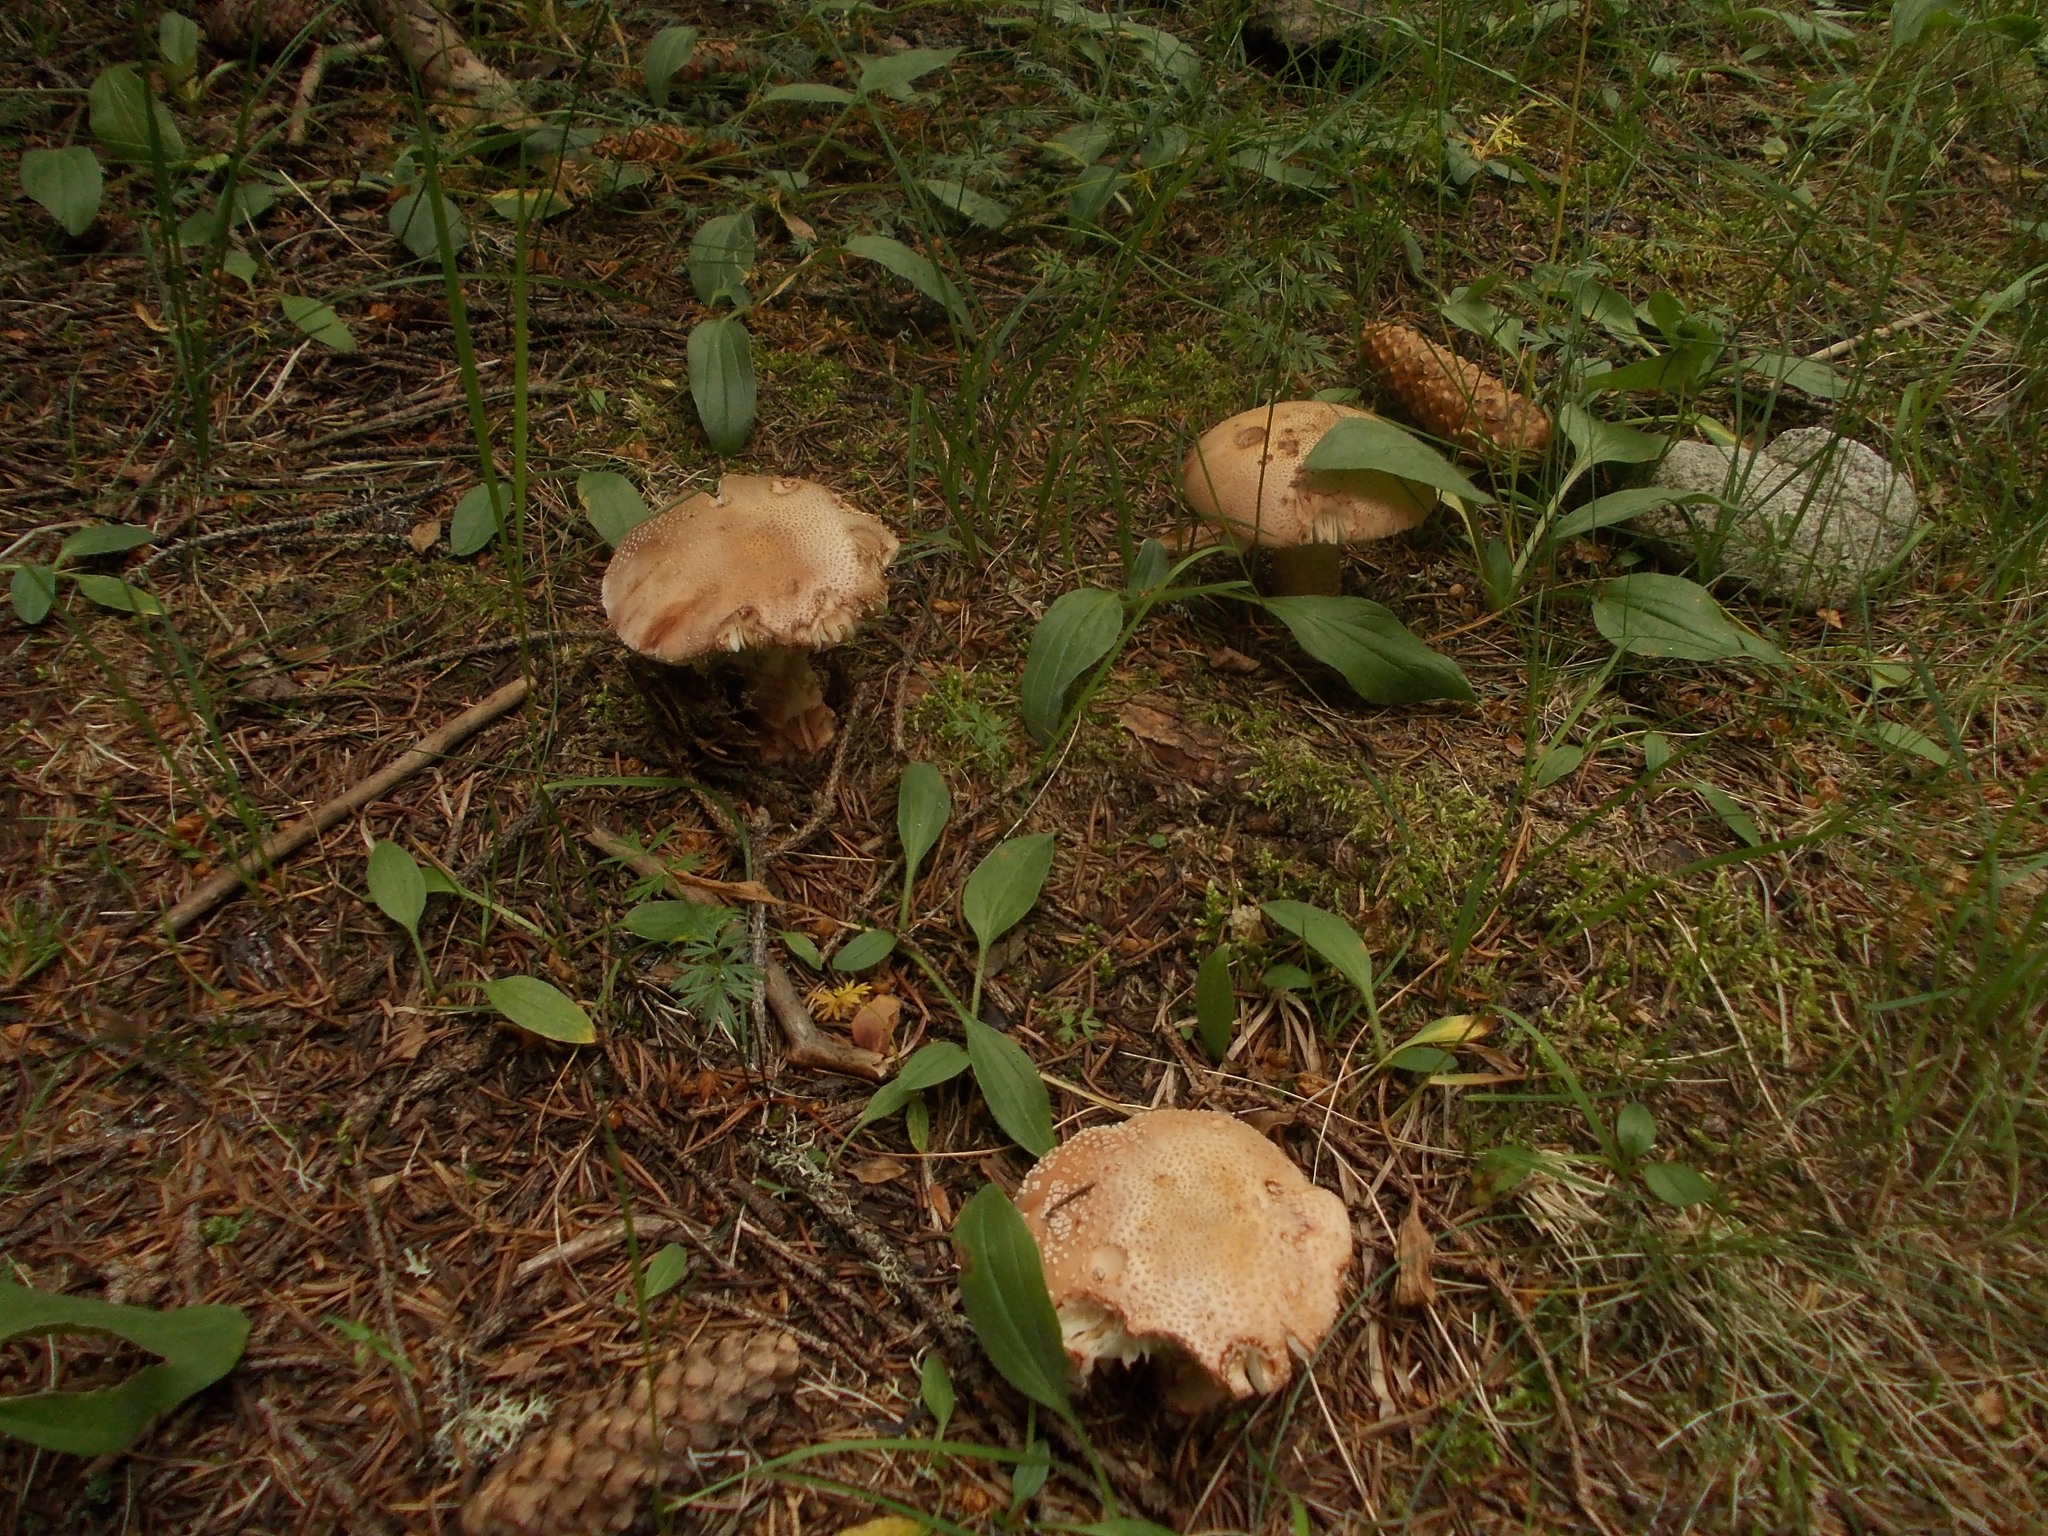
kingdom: Fungi
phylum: Basidiomycota
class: Agaricomycetes
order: Agaricales
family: Amanitaceae
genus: Amanita
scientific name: Amanita rubescens
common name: Blusher
